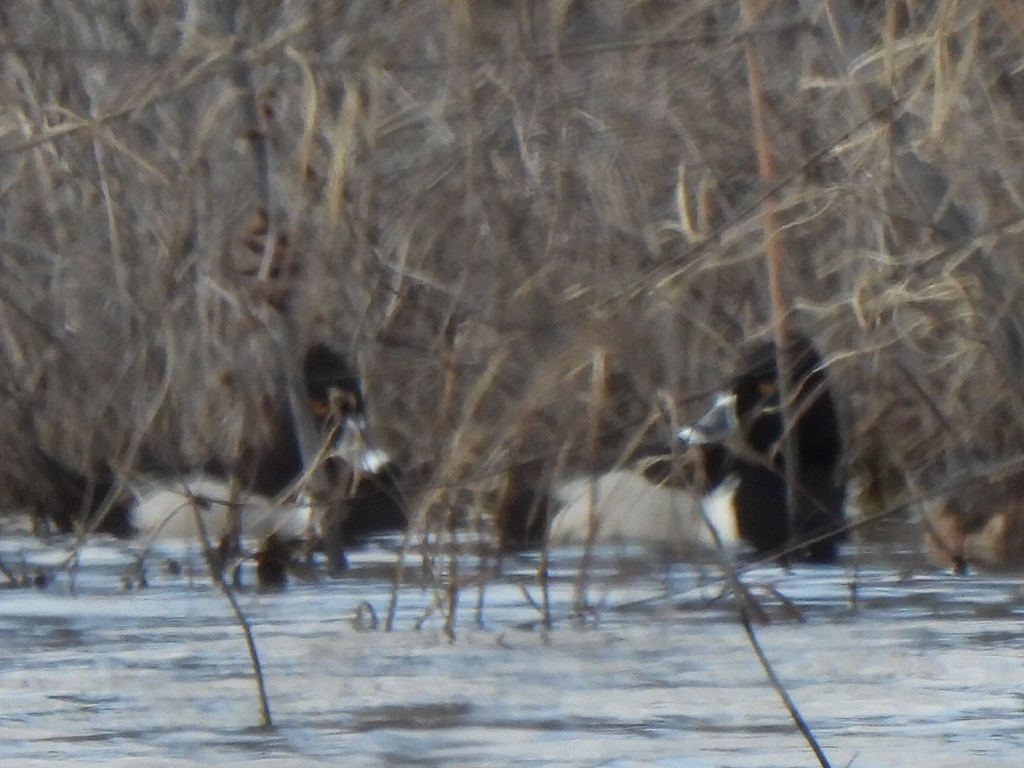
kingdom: Animalia
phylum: Chordata
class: Aves
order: Anseriformes
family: Anatidae
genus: Aythya
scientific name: Aythya collaris
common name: Ring-necked duck
